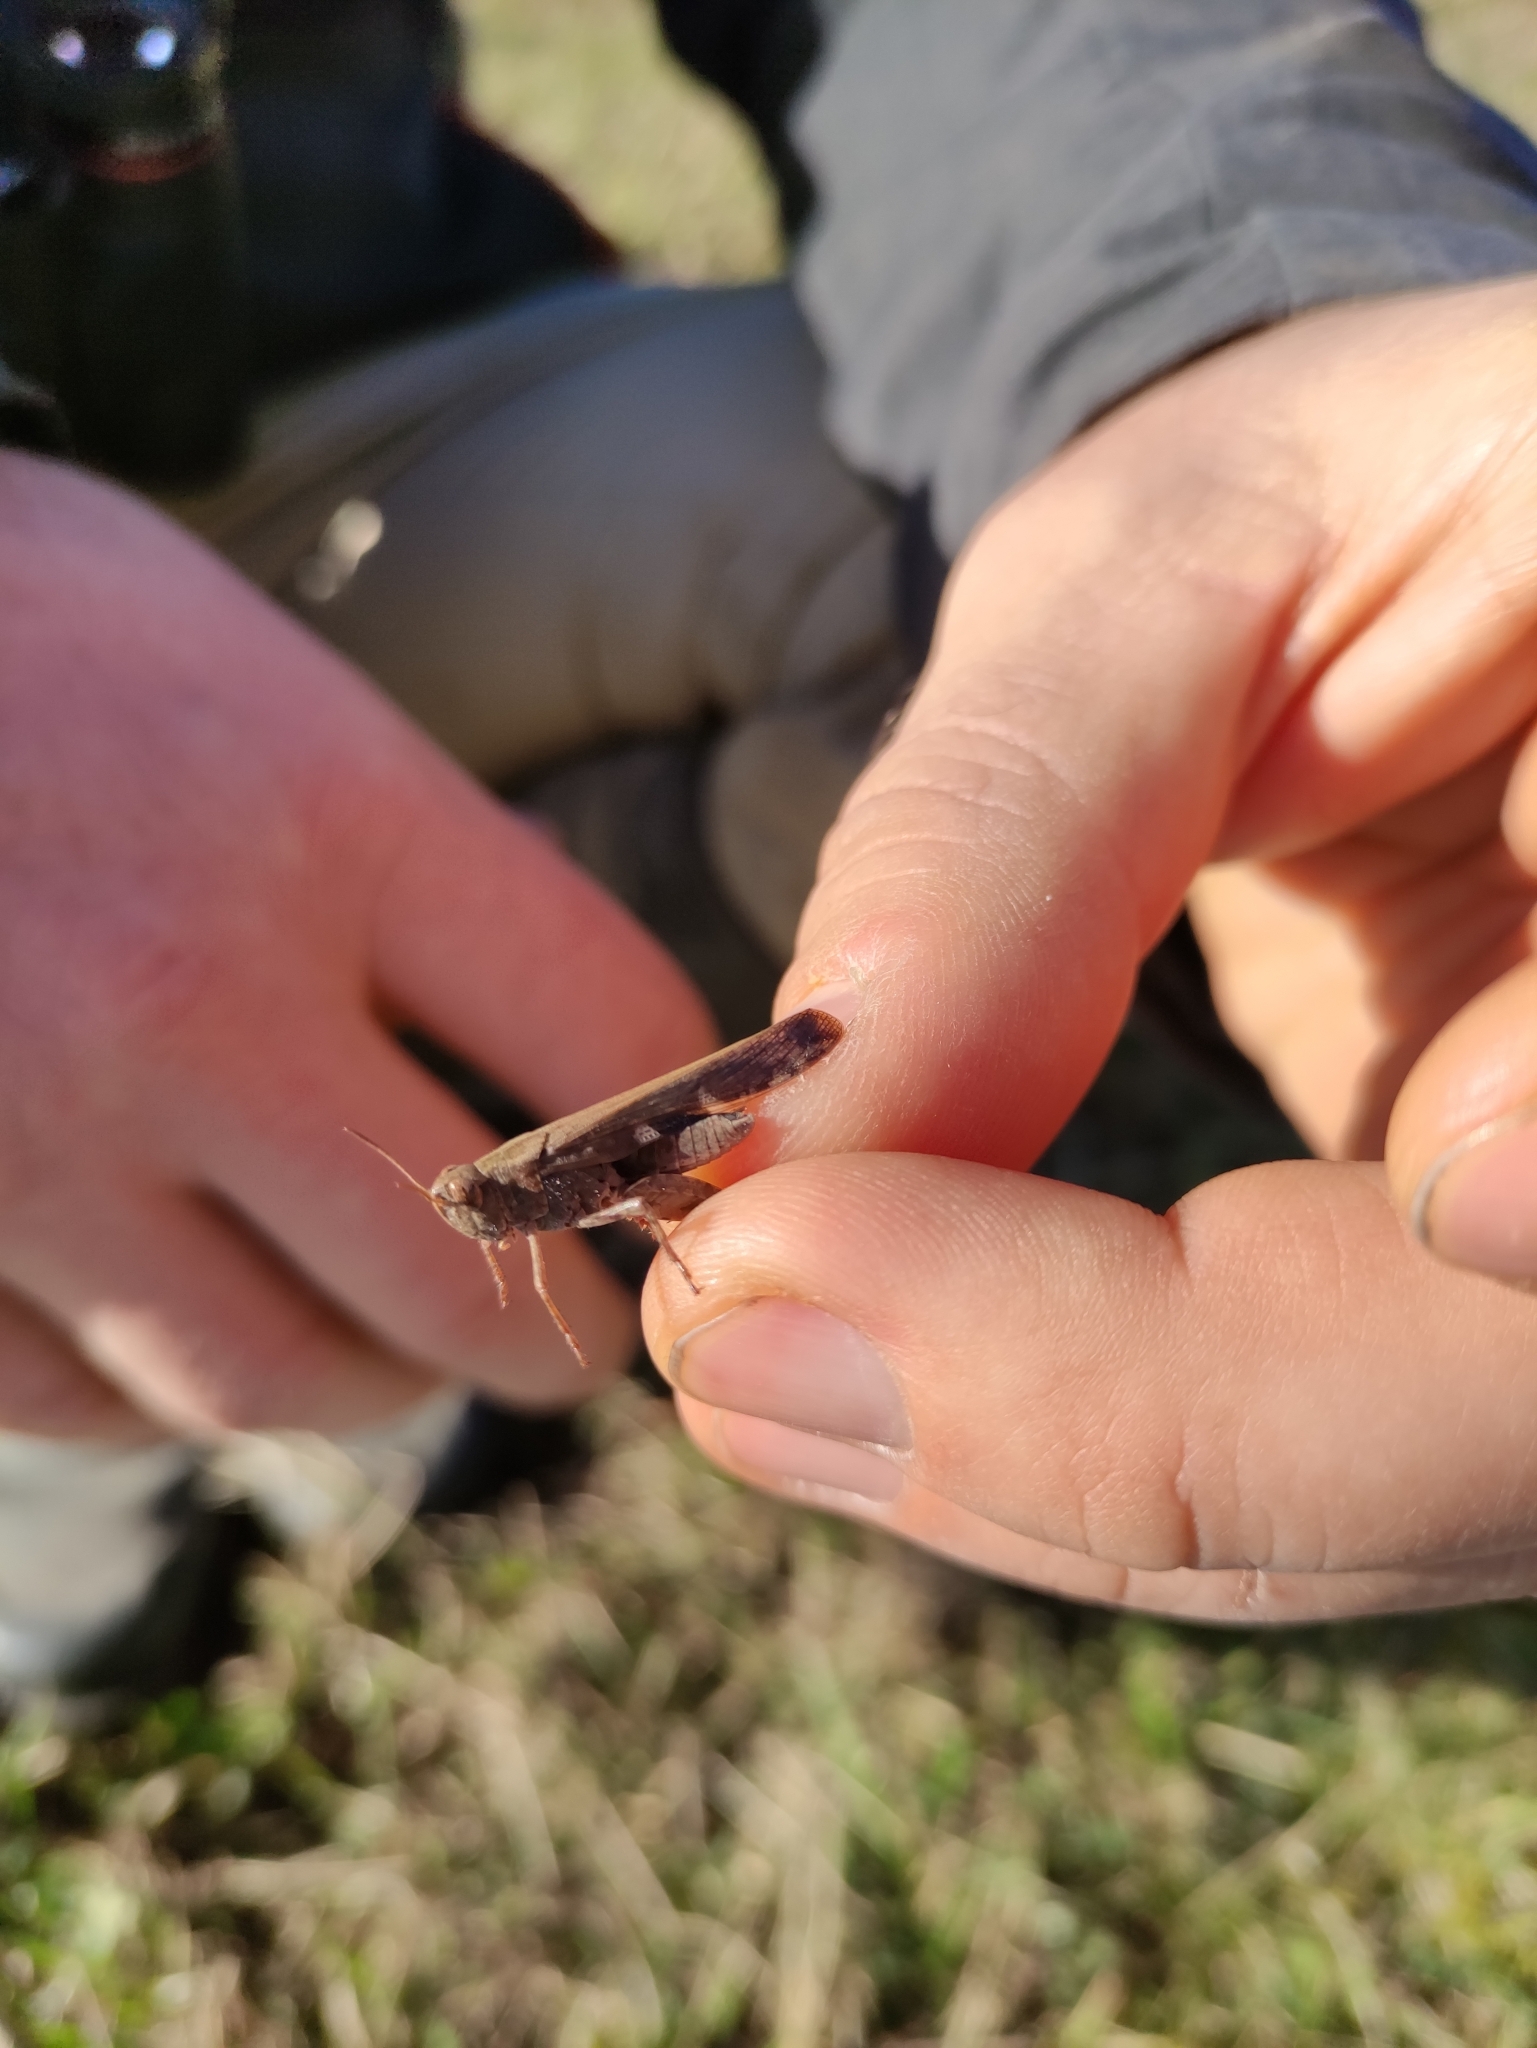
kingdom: Animalia
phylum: Arthropoda
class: Insecta
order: Orthoptera
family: Acrididae
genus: Aiolopus
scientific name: Aiolopus strepens
